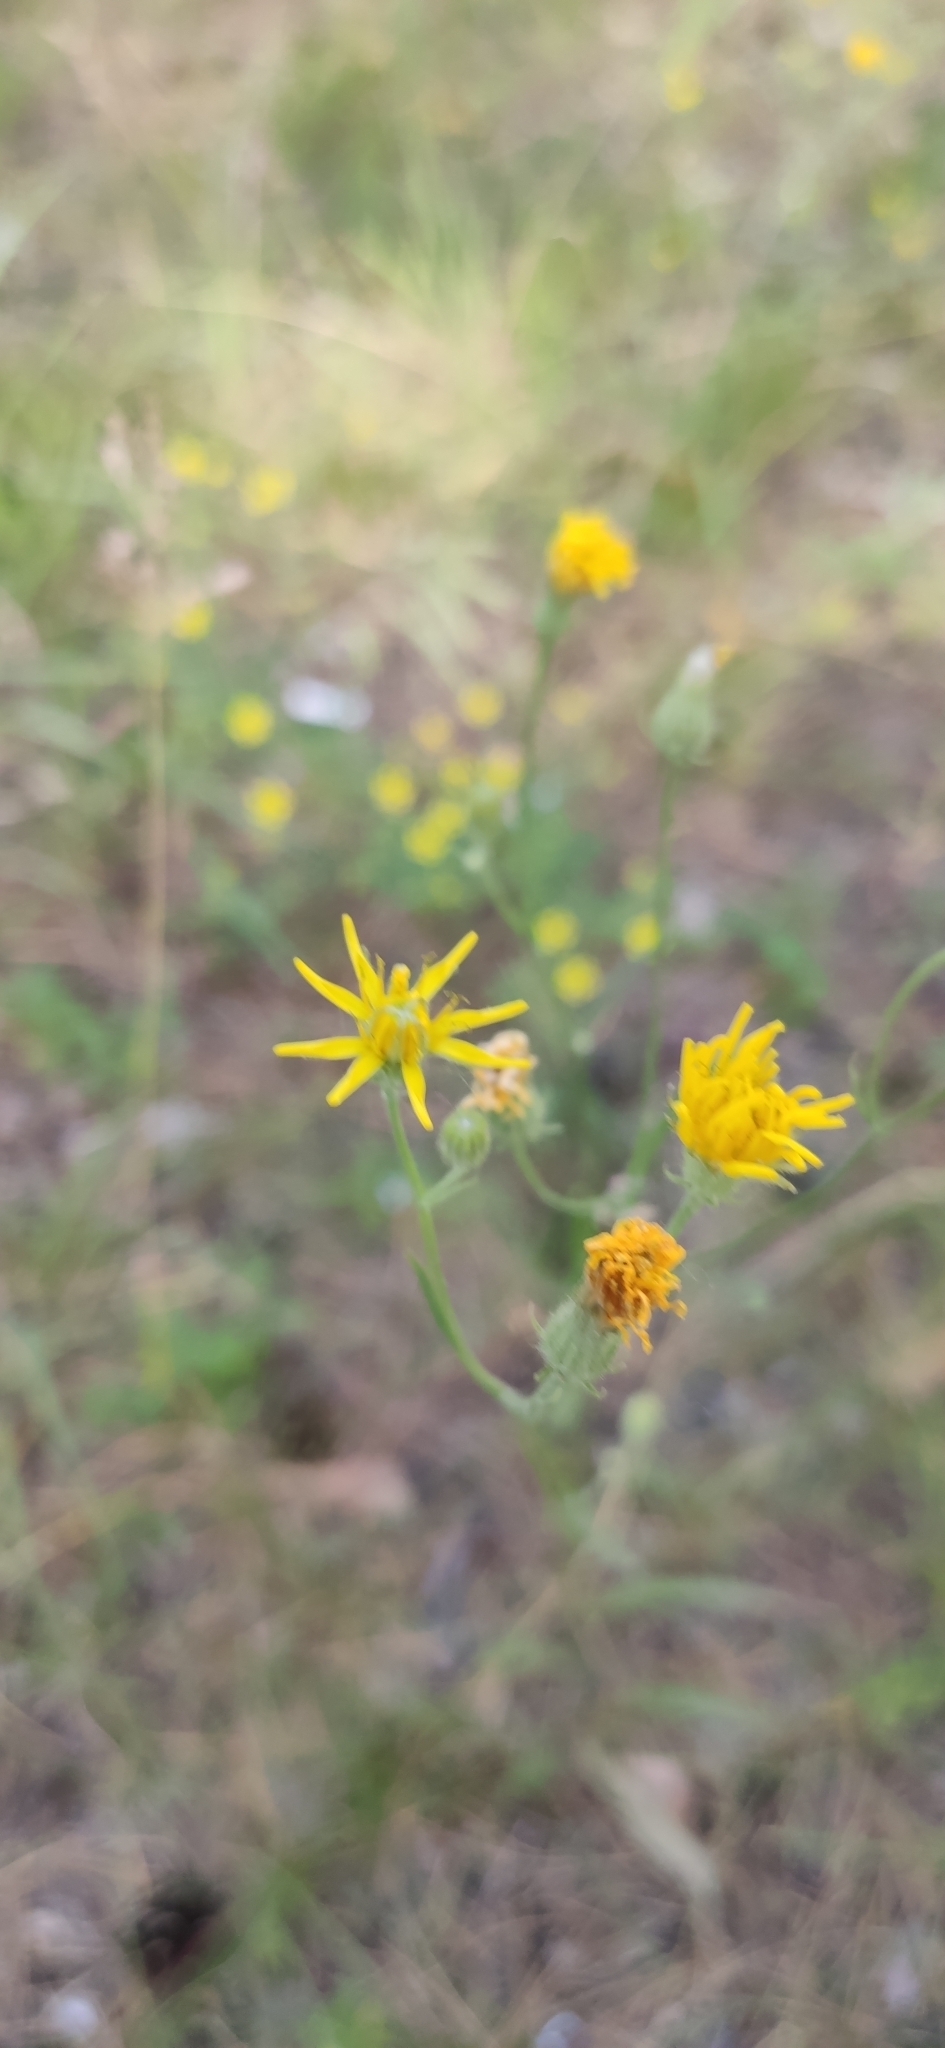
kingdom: Plantae
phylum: Tracheophyta
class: Magnoliopsida
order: Asterales
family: Asteraceae
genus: Crepis
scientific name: Crepis tectorum
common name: Narrow-leaved hawk's-beard
